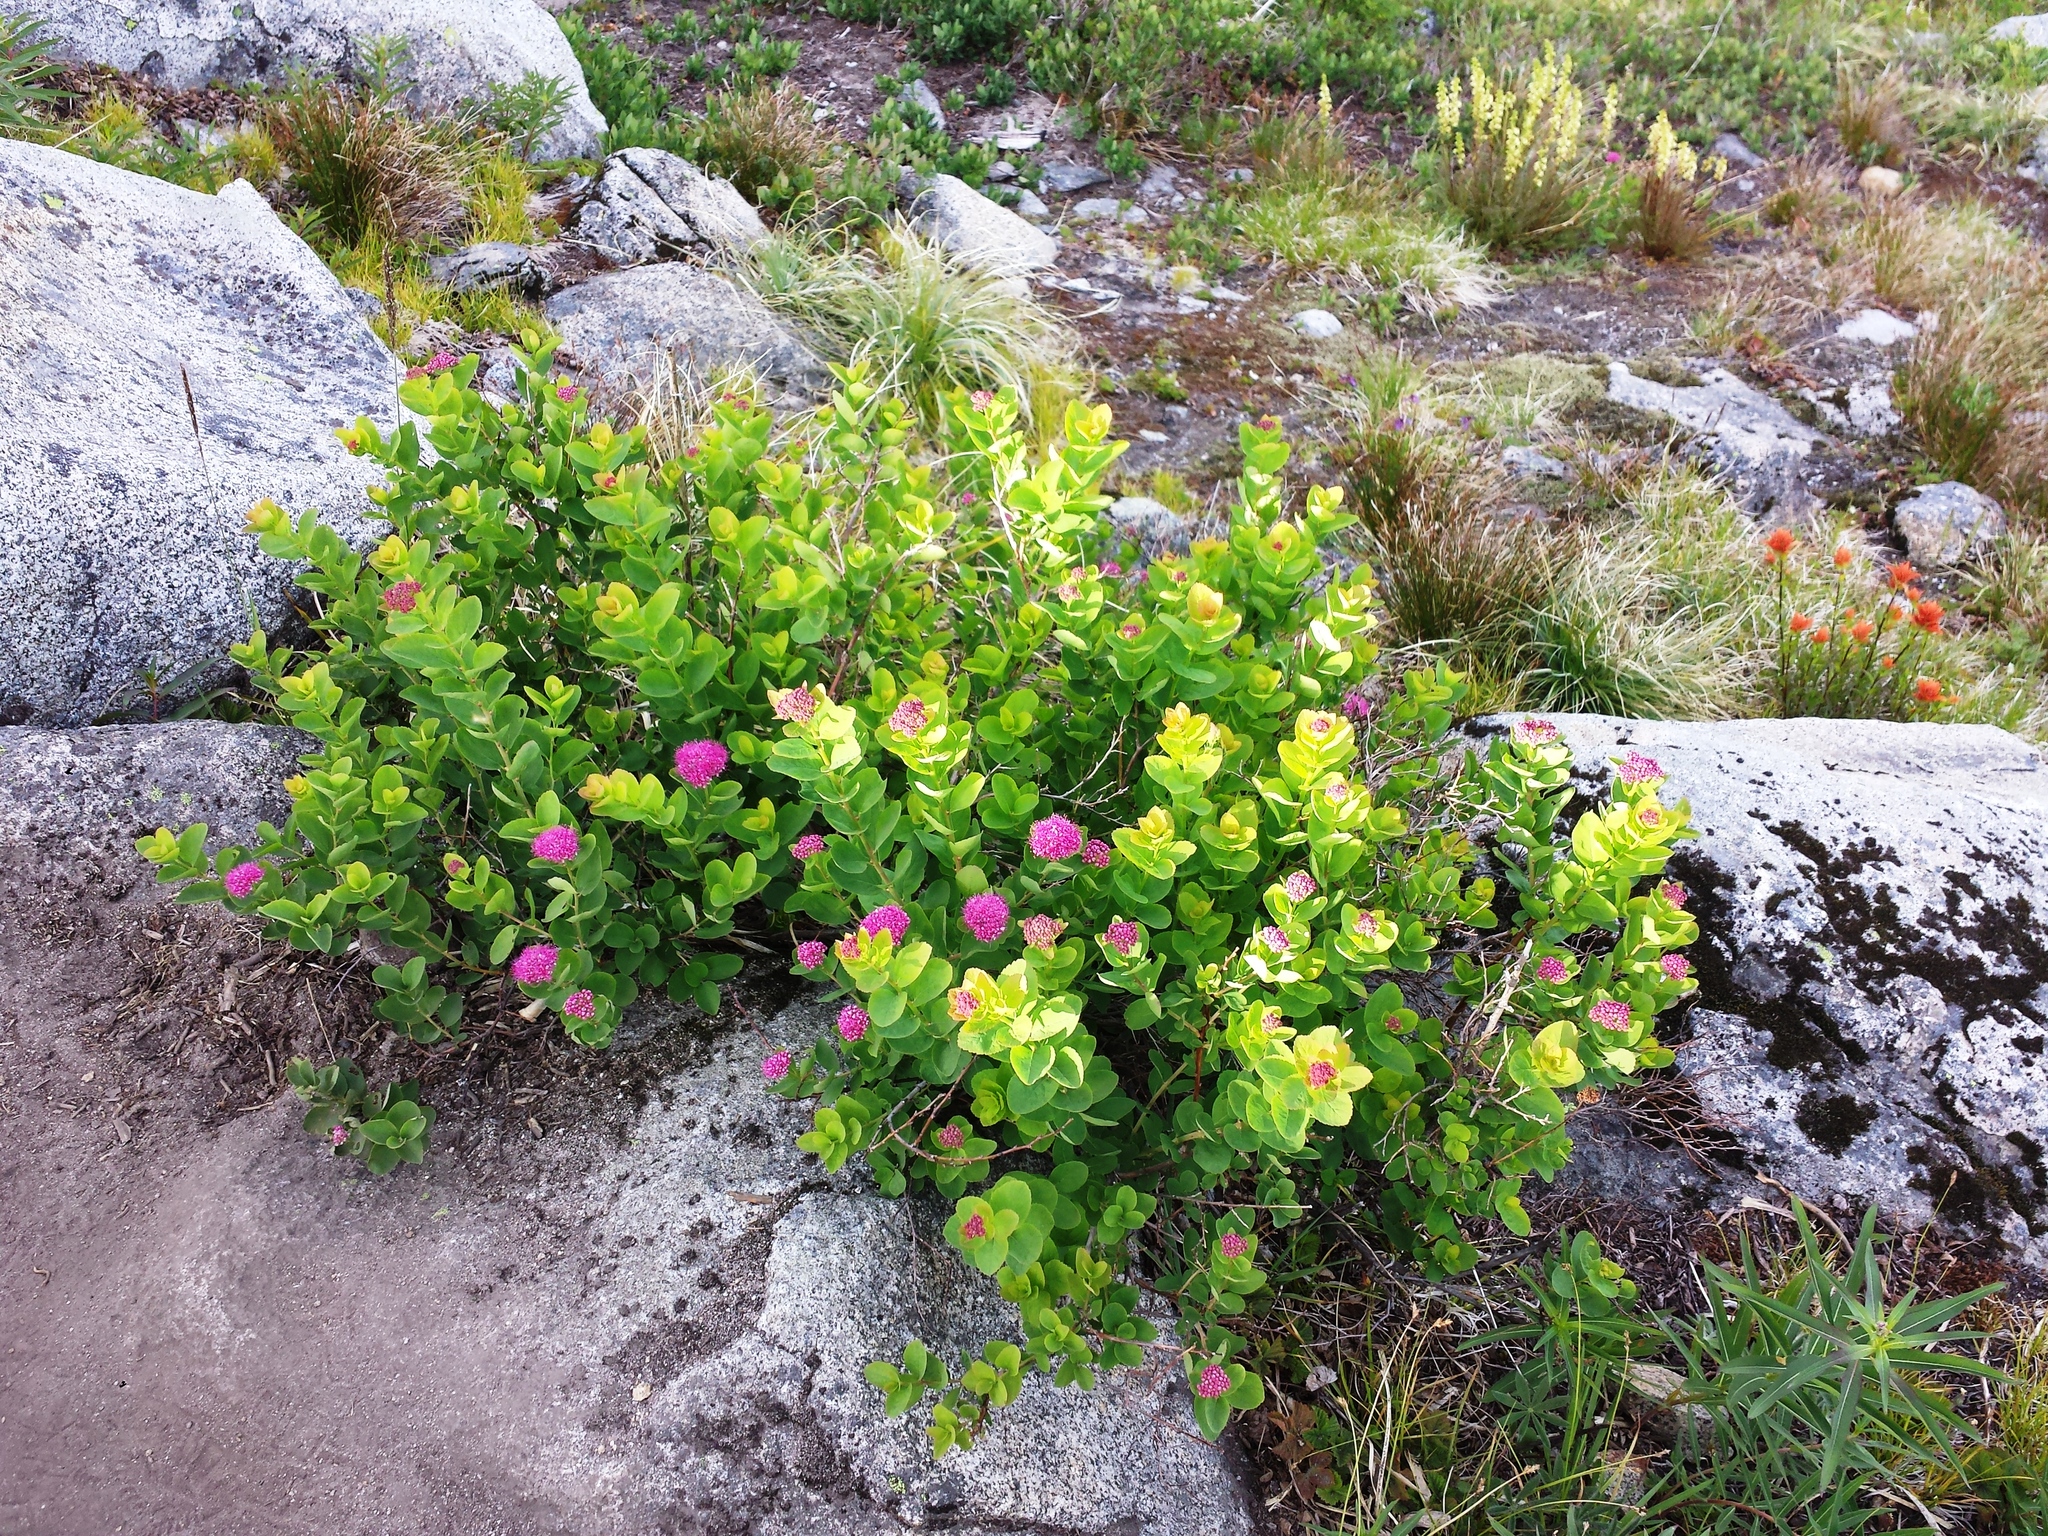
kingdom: Plantae
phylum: Tracheophyta
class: Magnoliopsida
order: Rosales
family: Rosaceae
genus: Spiraea
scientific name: Spiraea splendens
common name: Subalpine meadowsweet
